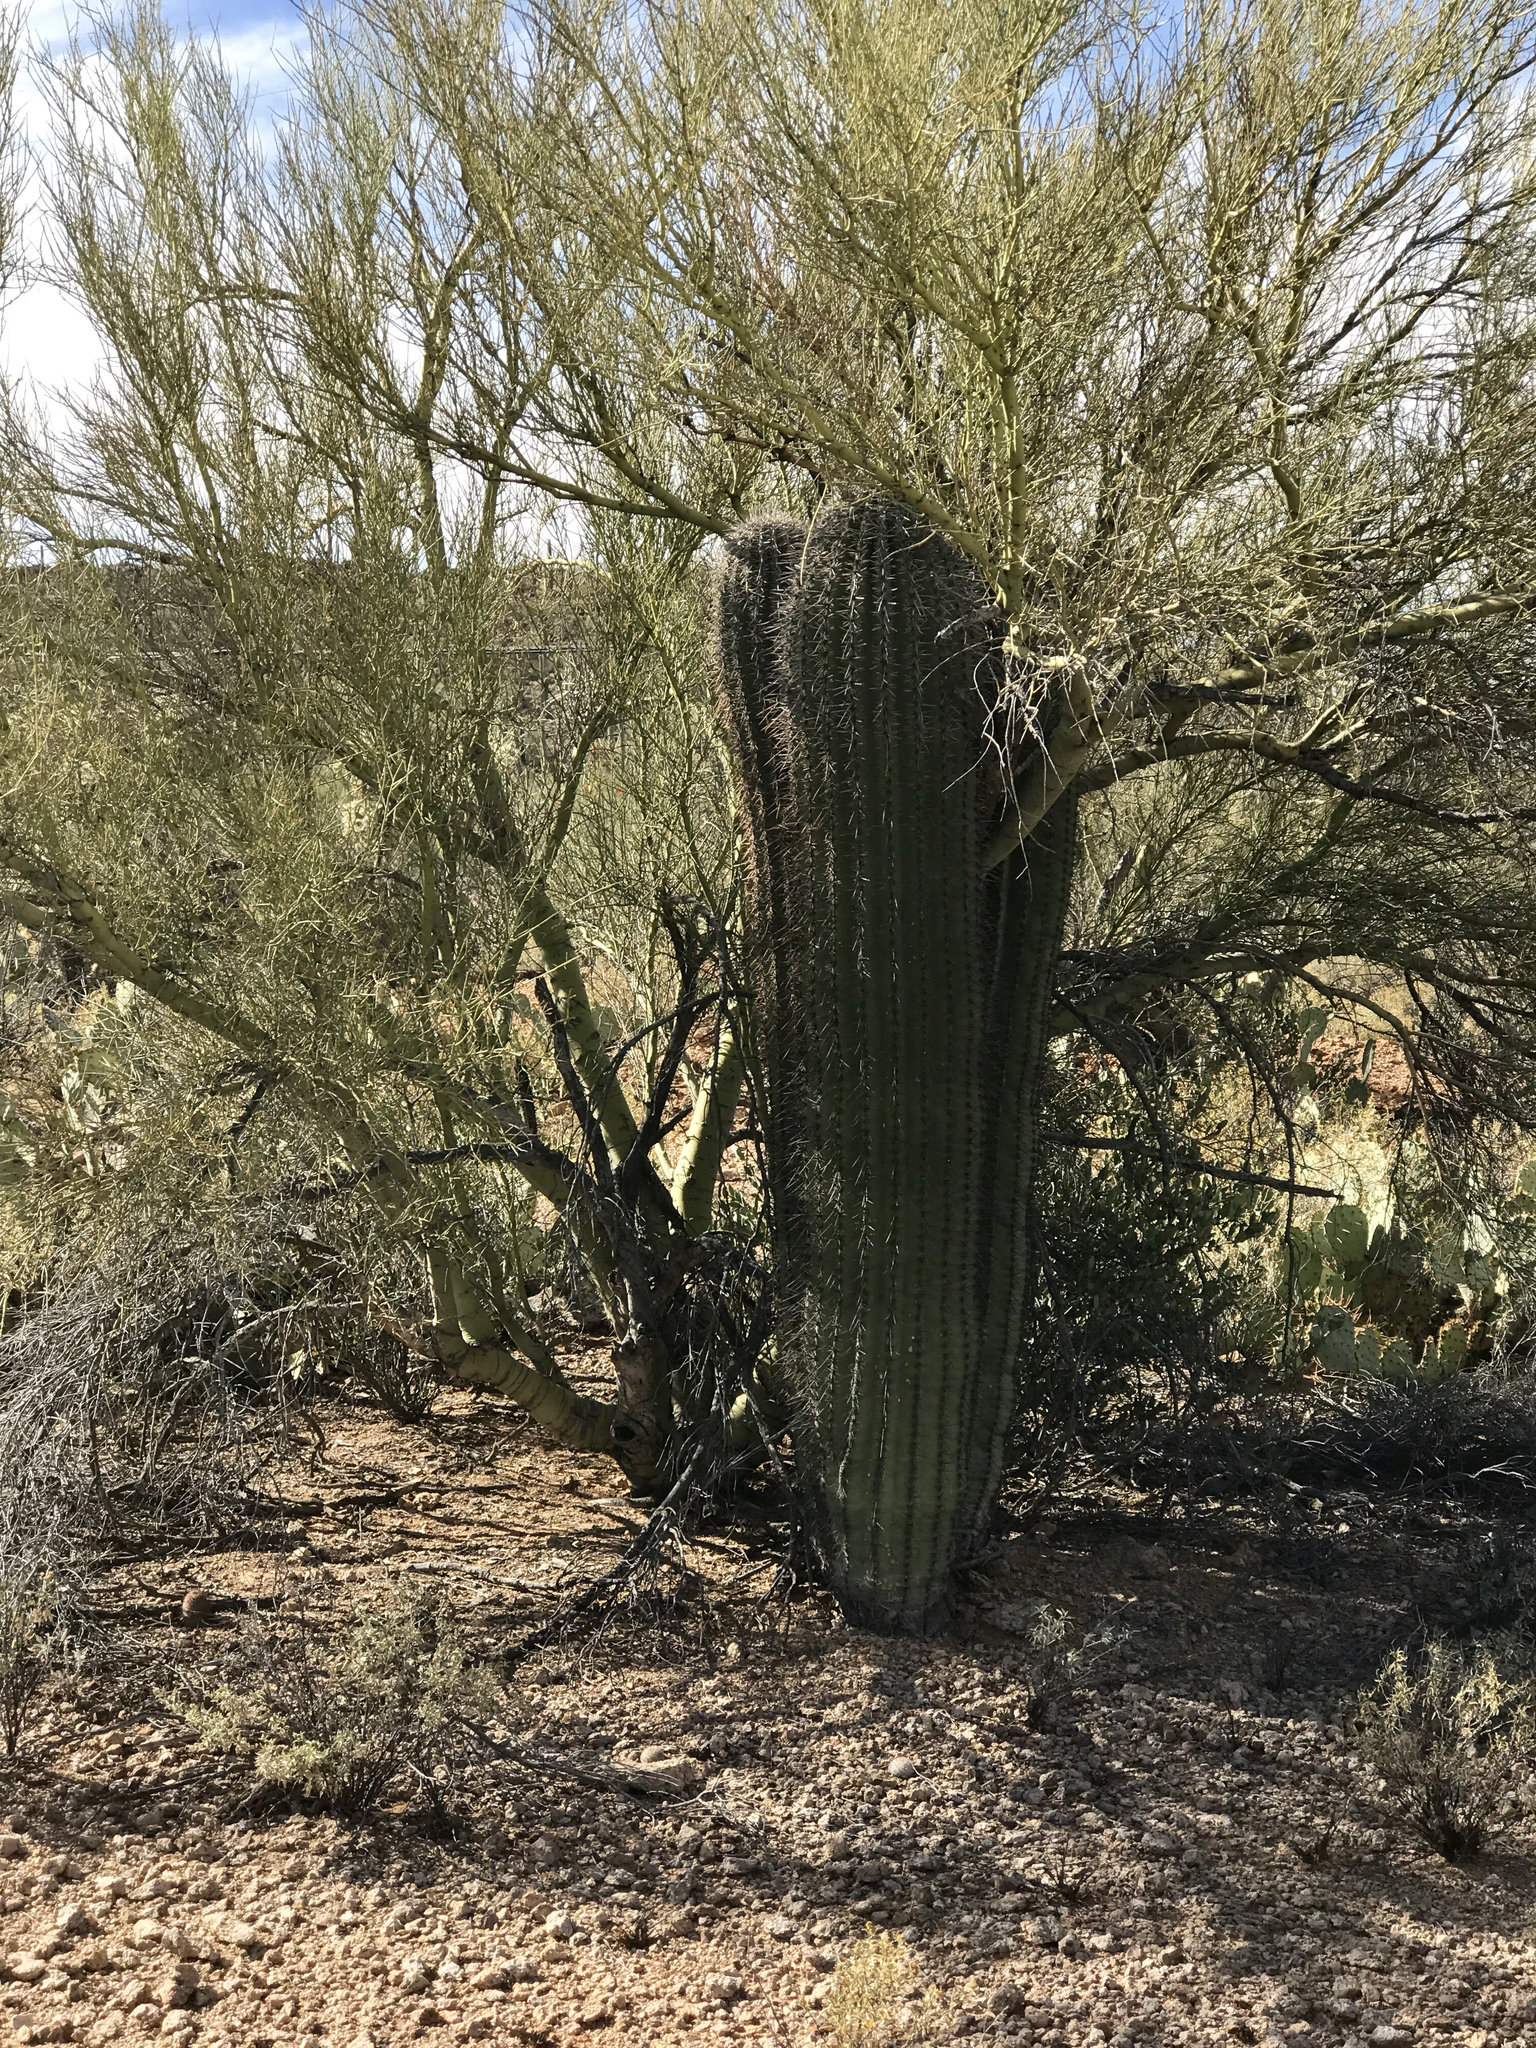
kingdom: Plantae
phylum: Tracheophyta
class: Magnoliopsida
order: Caryophyllales
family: Cactaceae
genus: Carnegiea
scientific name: Carnegiea gigantea
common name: Saguaro
